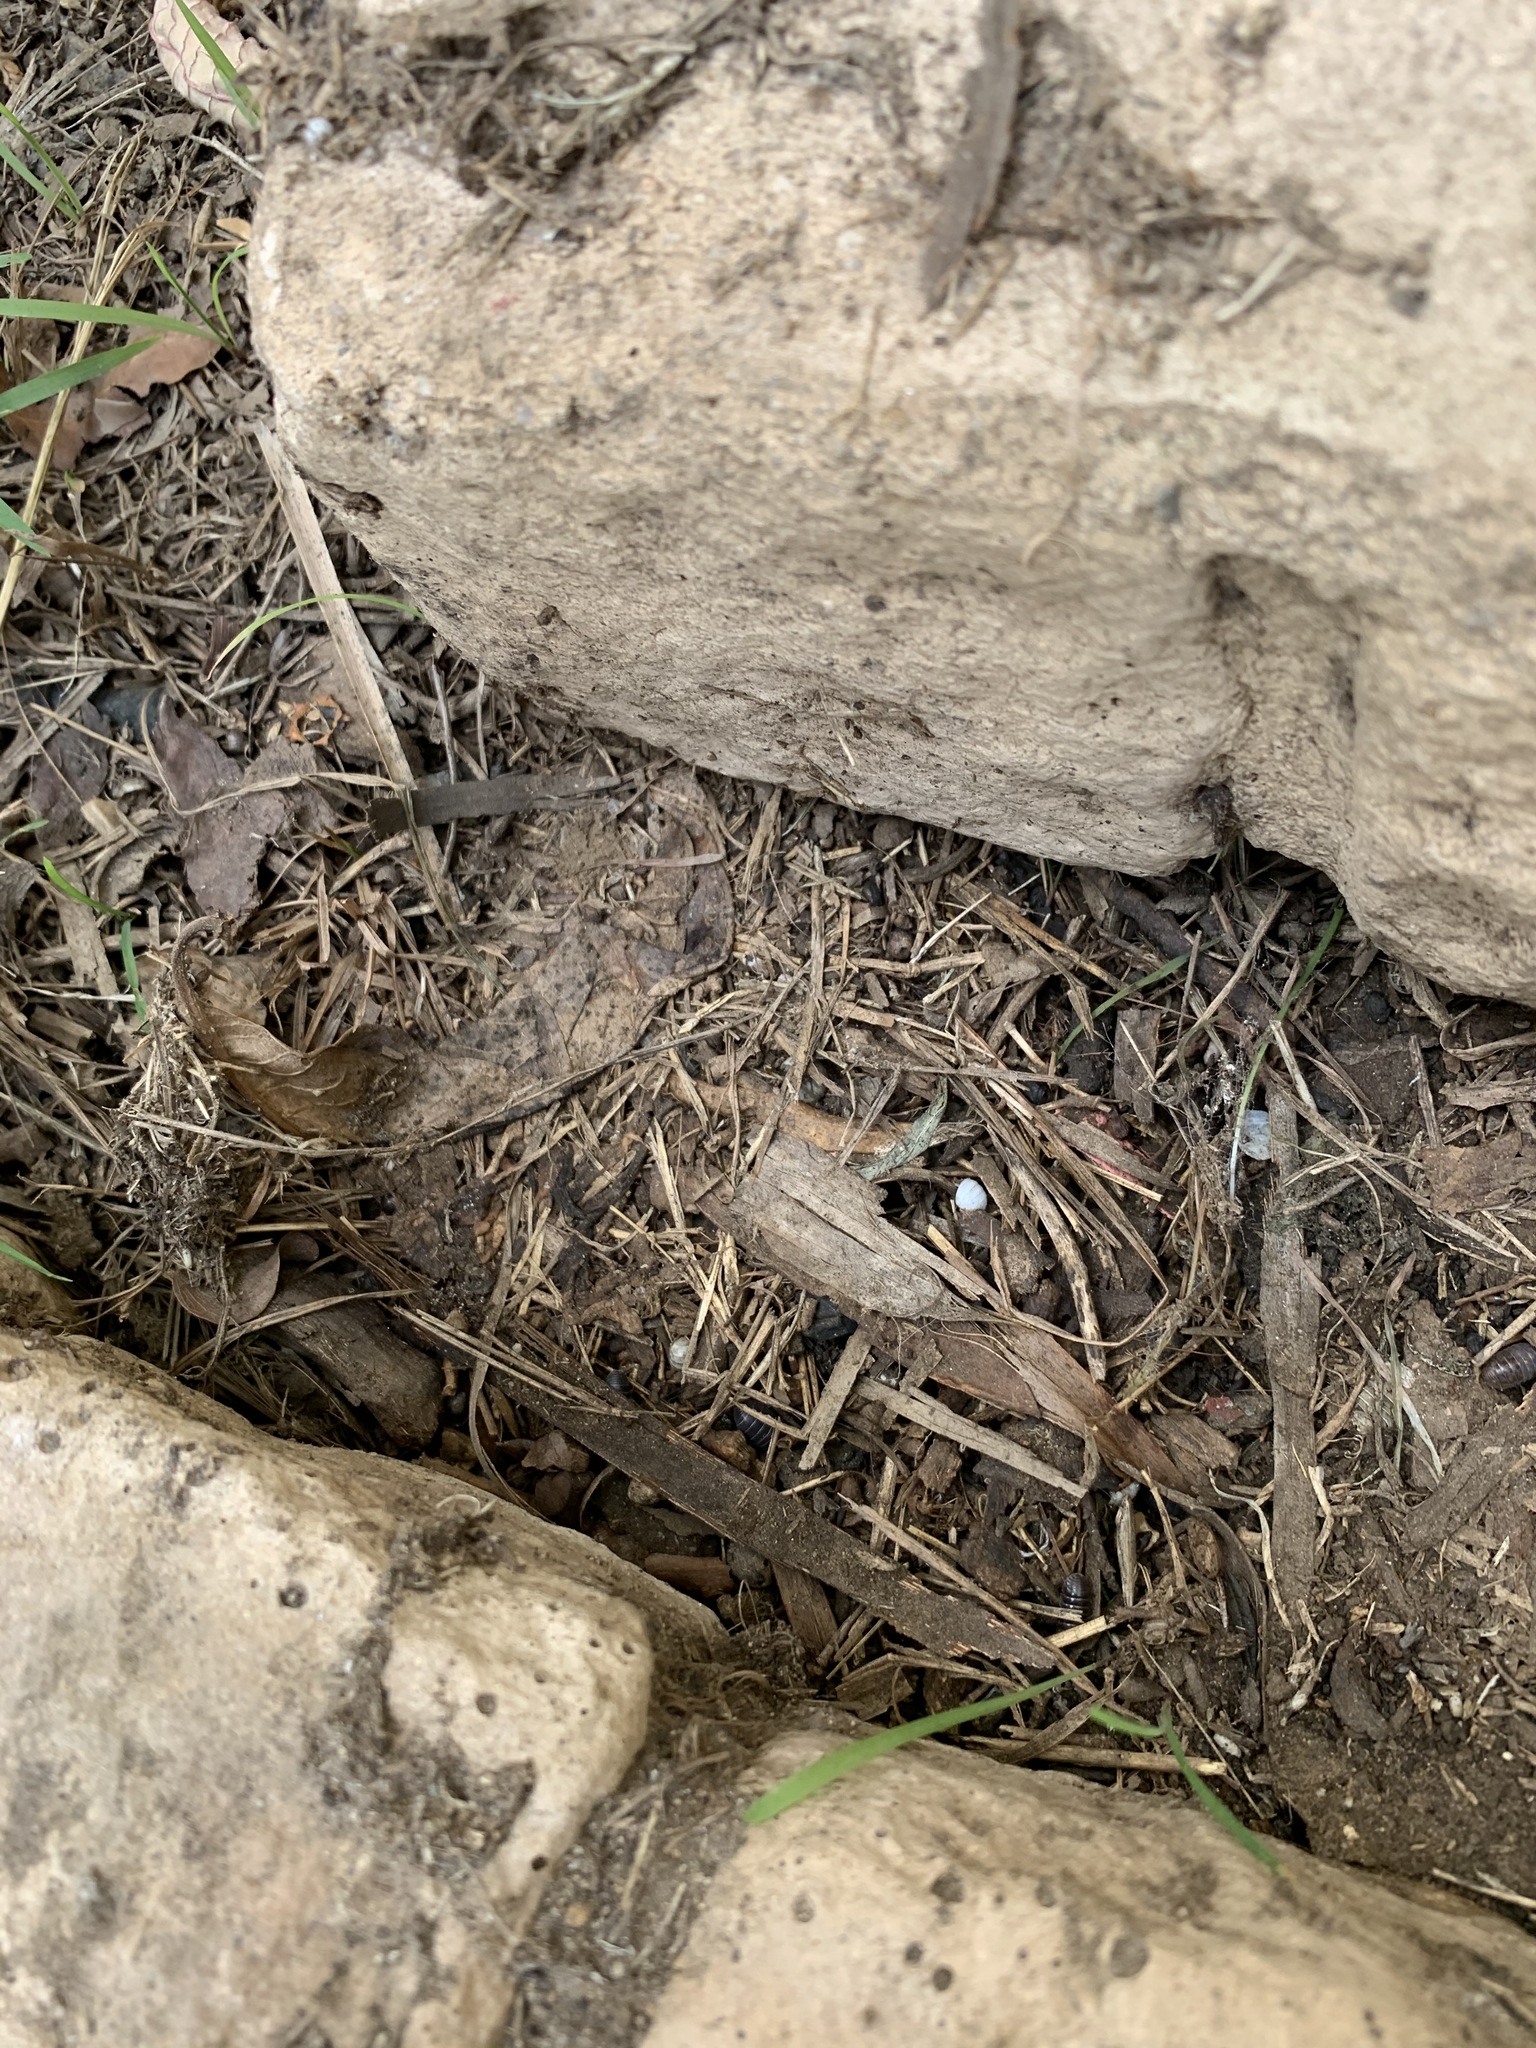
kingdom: Animalia
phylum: Arthropoda
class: Malacostraca
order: Isopoda
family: Armadillidiidae
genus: Armadillidium
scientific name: Armadillidium vulgare
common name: Common pill woodlouse
